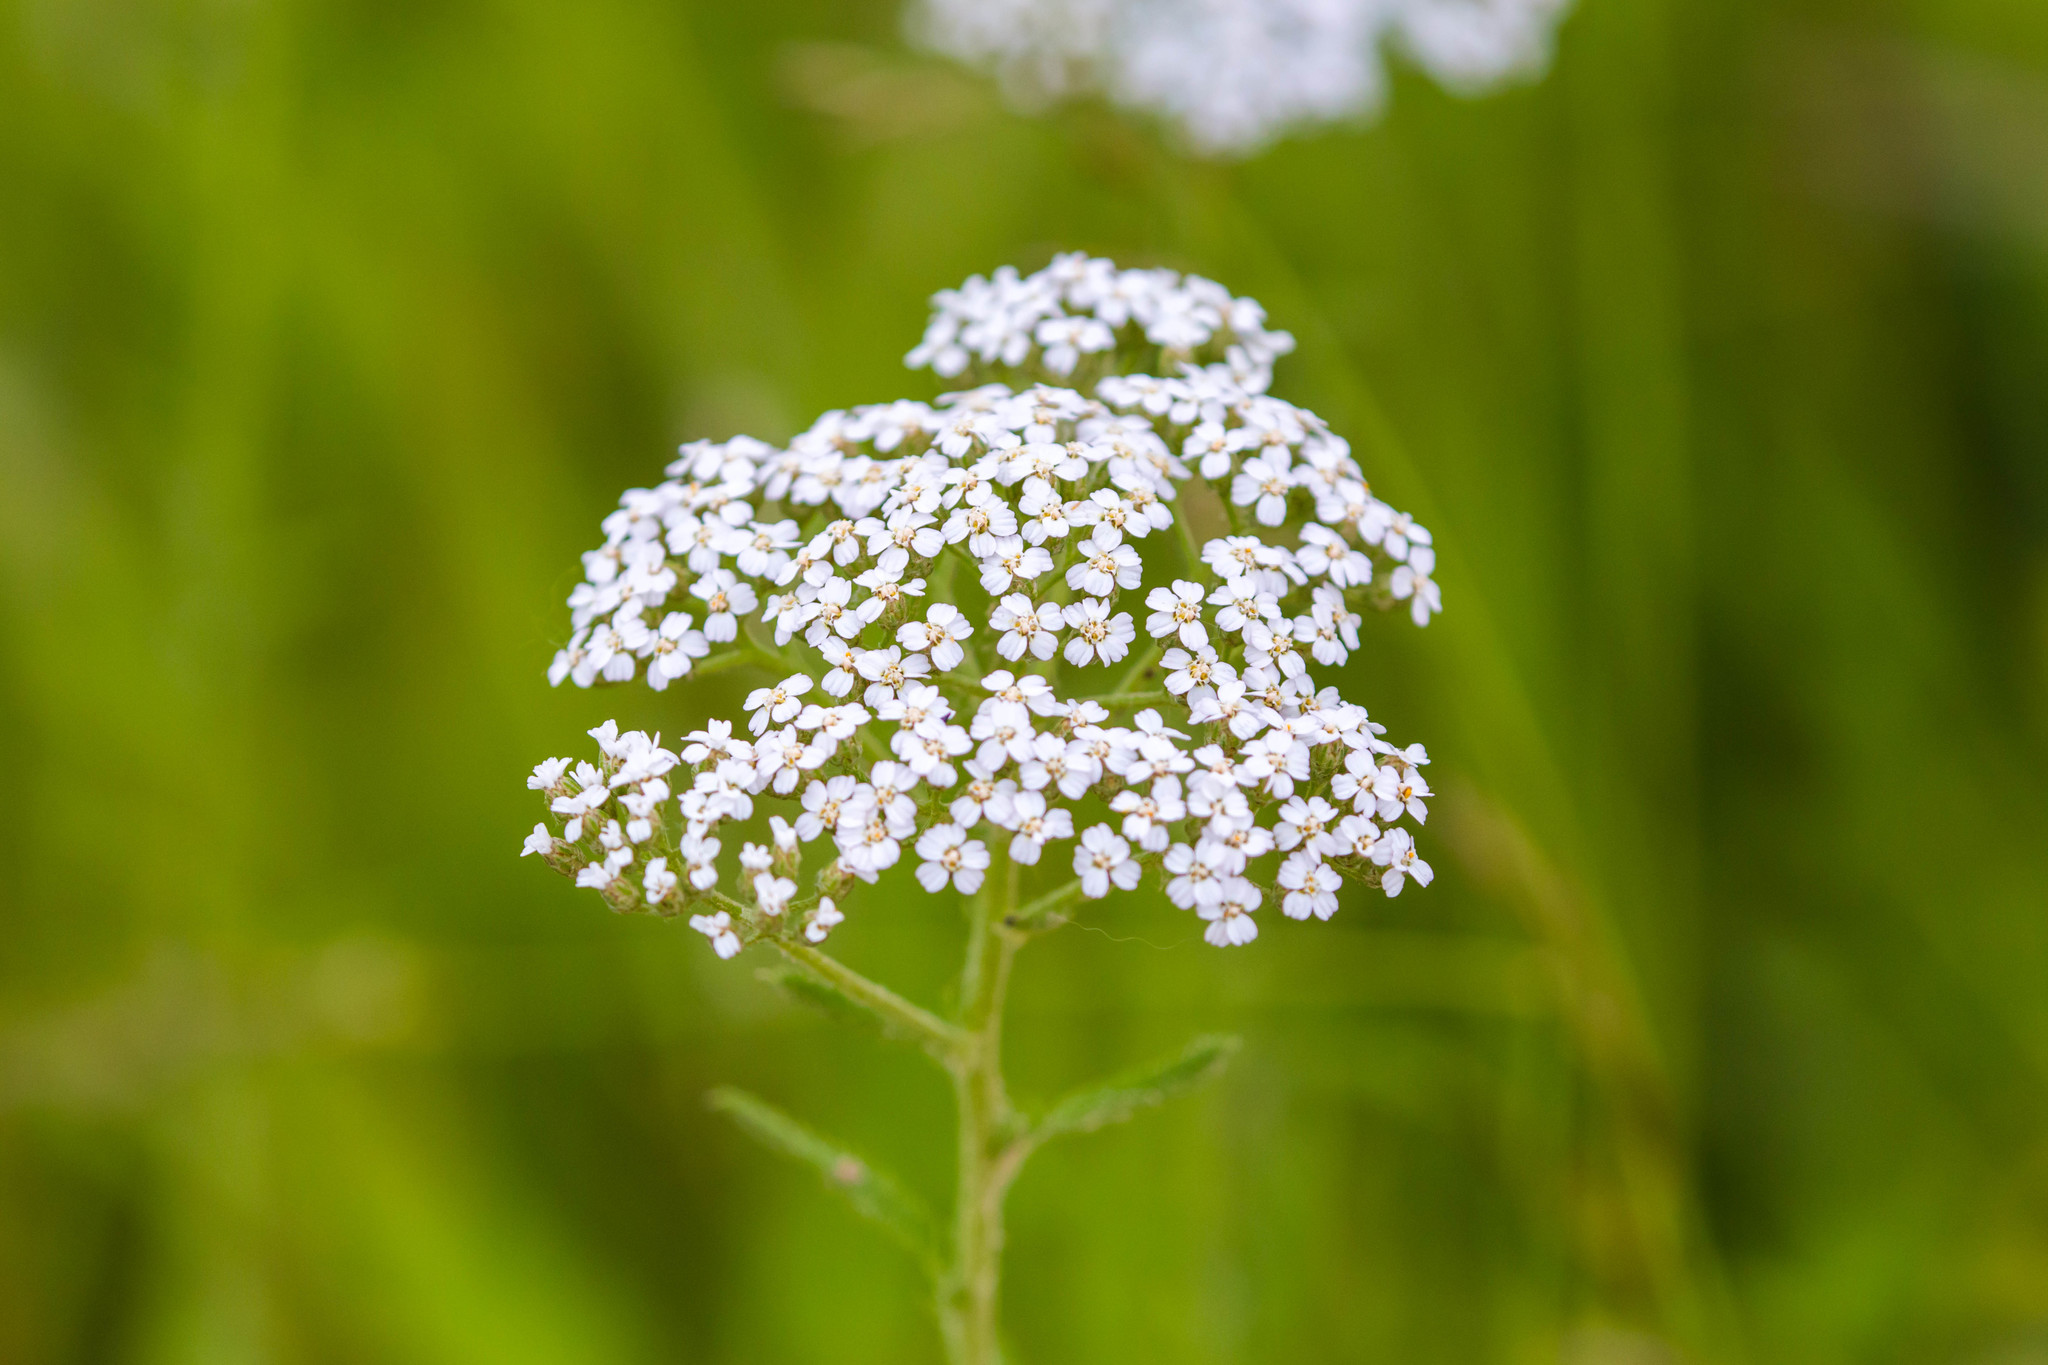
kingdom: Plantae
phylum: Tracheophyta
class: Magnoliopsida
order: Asterales
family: Asteraceae
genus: Achillea
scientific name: Achillea millefolium
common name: Yarrow
